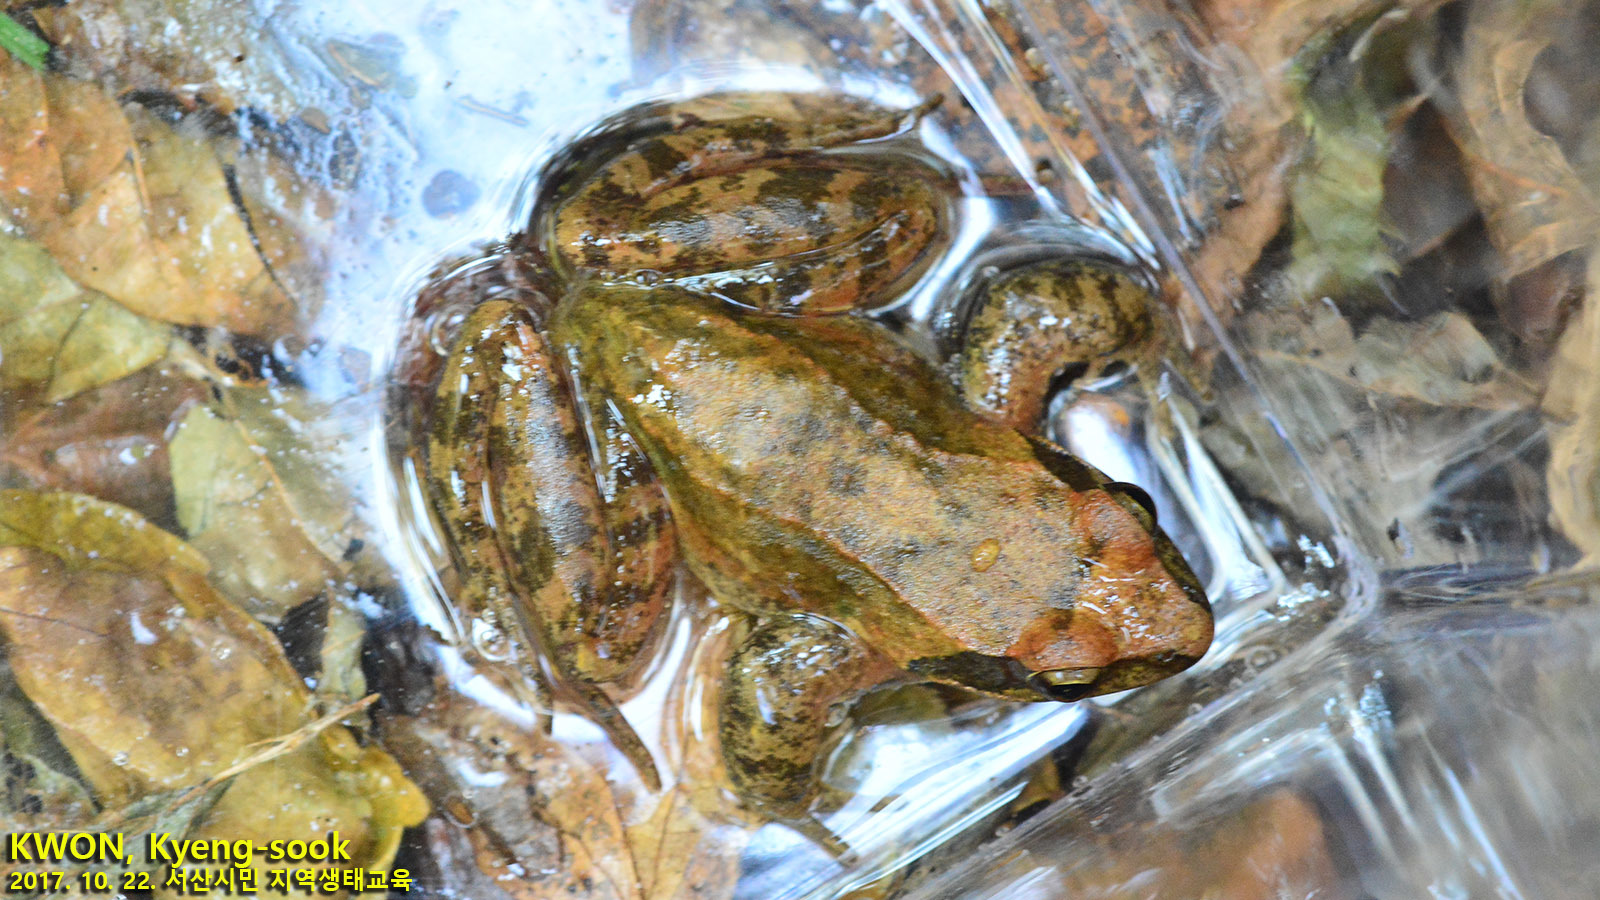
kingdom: Animalia
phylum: Chordata
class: Amphibia
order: Anura
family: Ranidae
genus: Rana
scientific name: Rana huanrenensis
